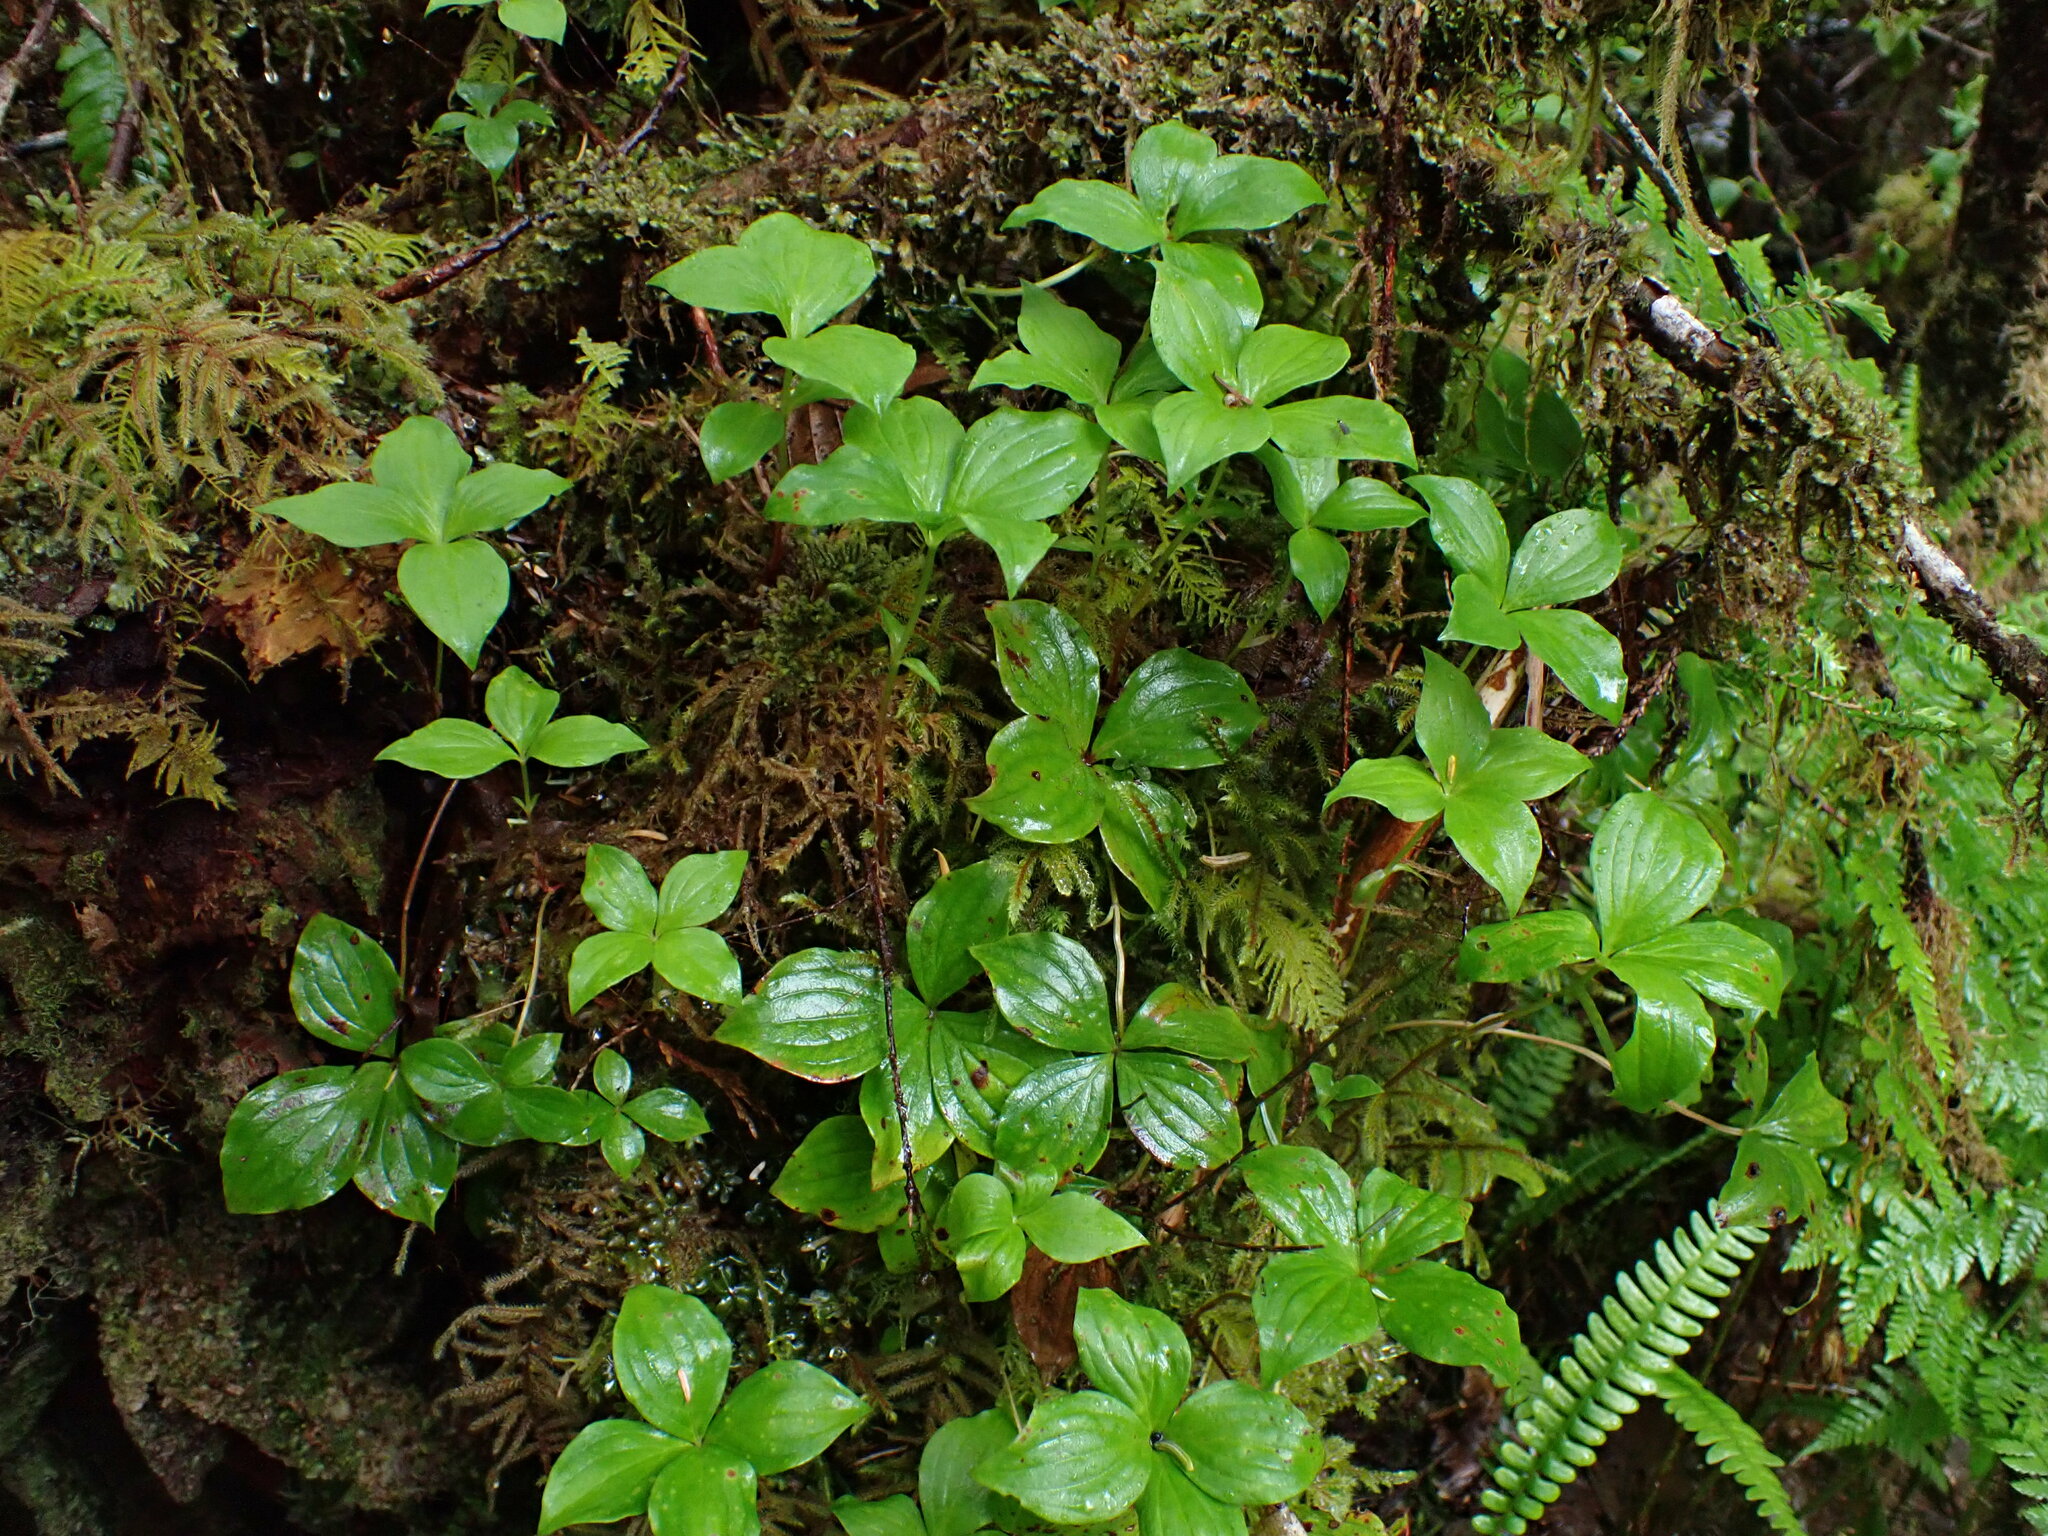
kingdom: Plantae
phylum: Tracheophyta
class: Magnoliopsida
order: Cornales
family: Cornaceae
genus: Cornus
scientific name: Cornus unalaschkensis
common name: Alaska bunchberry
